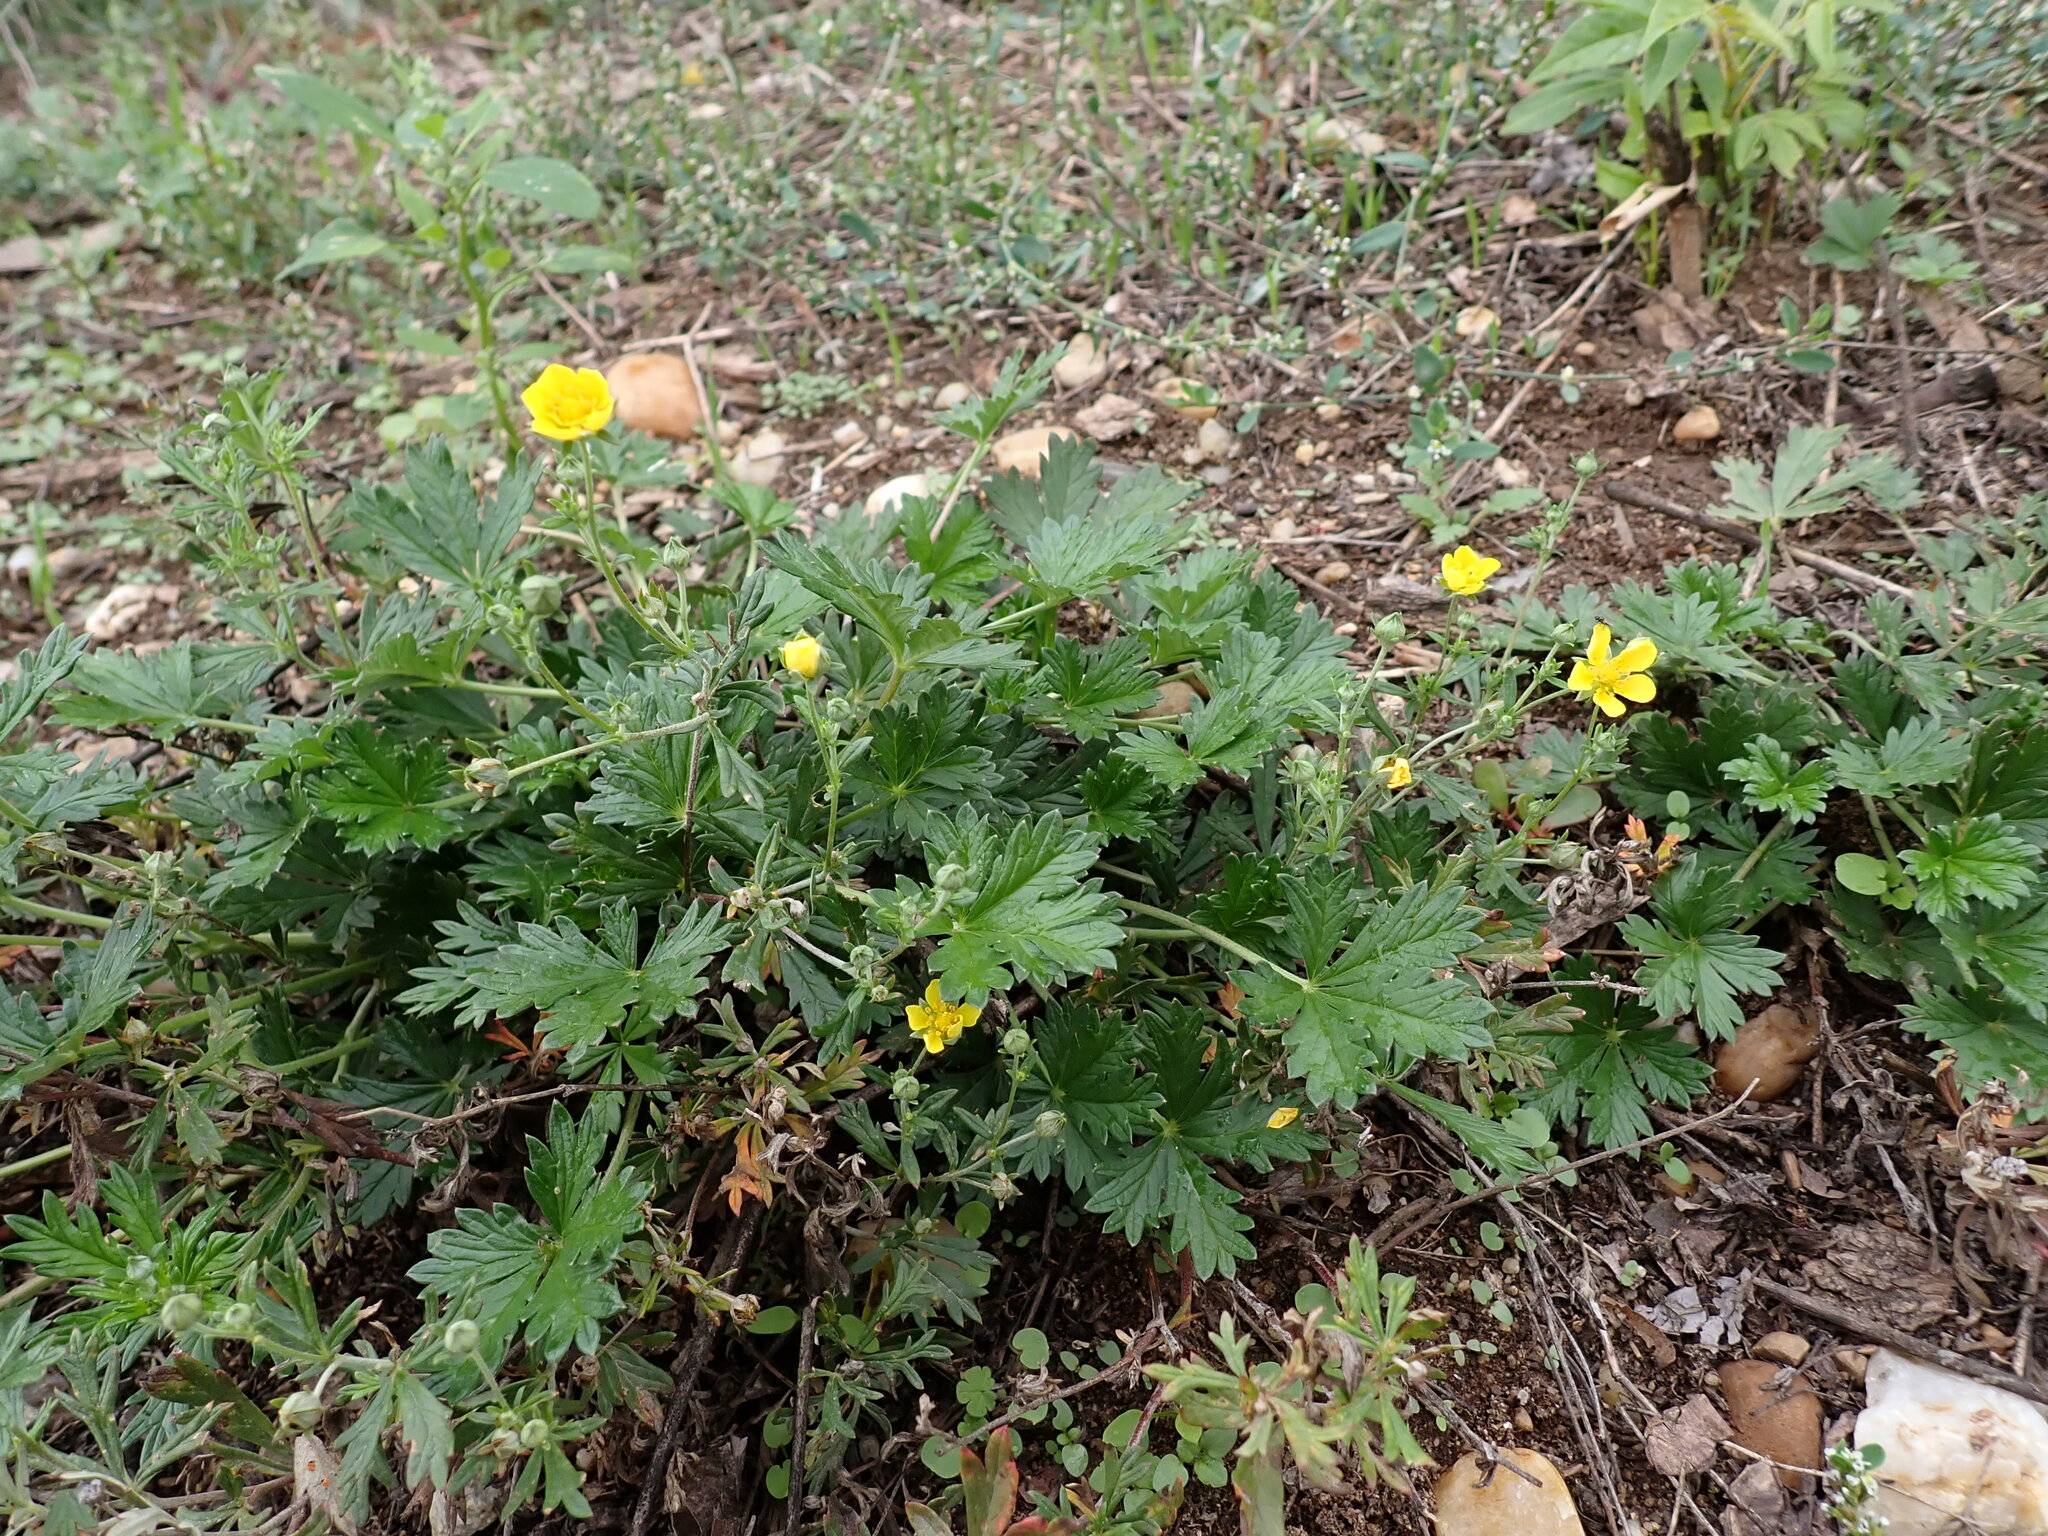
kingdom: Plantae
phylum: Tracheophyta
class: Magnoliopsida
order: Rosales
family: Rosaceae
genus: Potentilla
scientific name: Potentilla argentea
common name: Hoary cinquefoil
